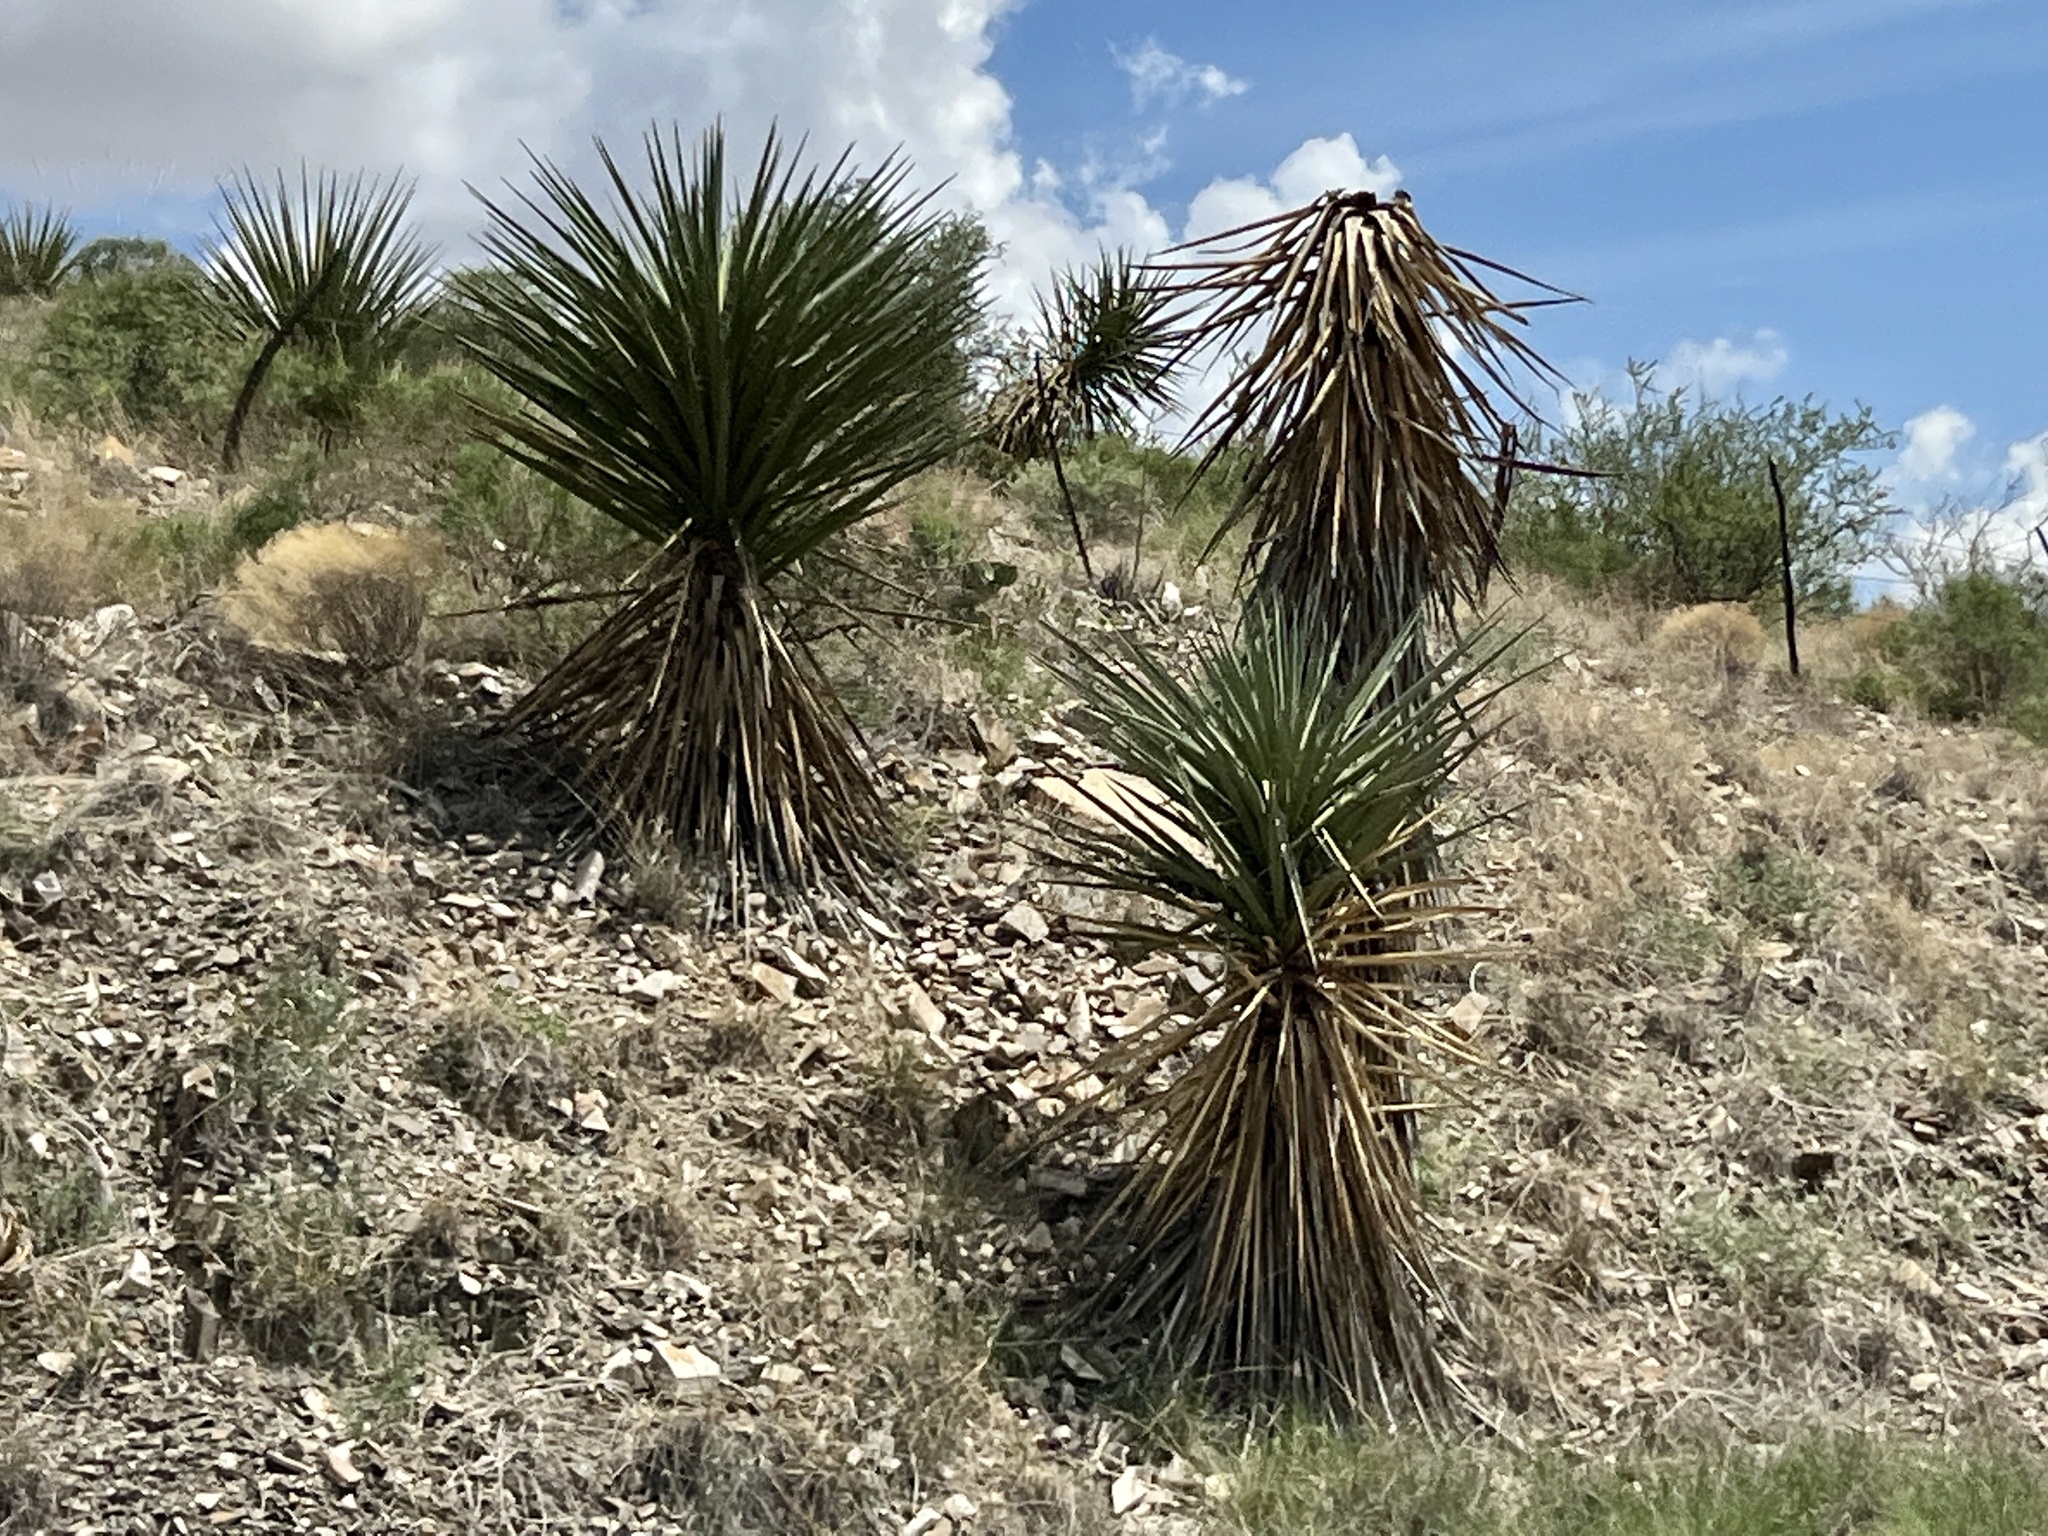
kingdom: Plantae
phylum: Tracheophyta
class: Liliopsida
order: Asparagales
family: Asparagaceae
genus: Yucca
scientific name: Yucca treculiana
